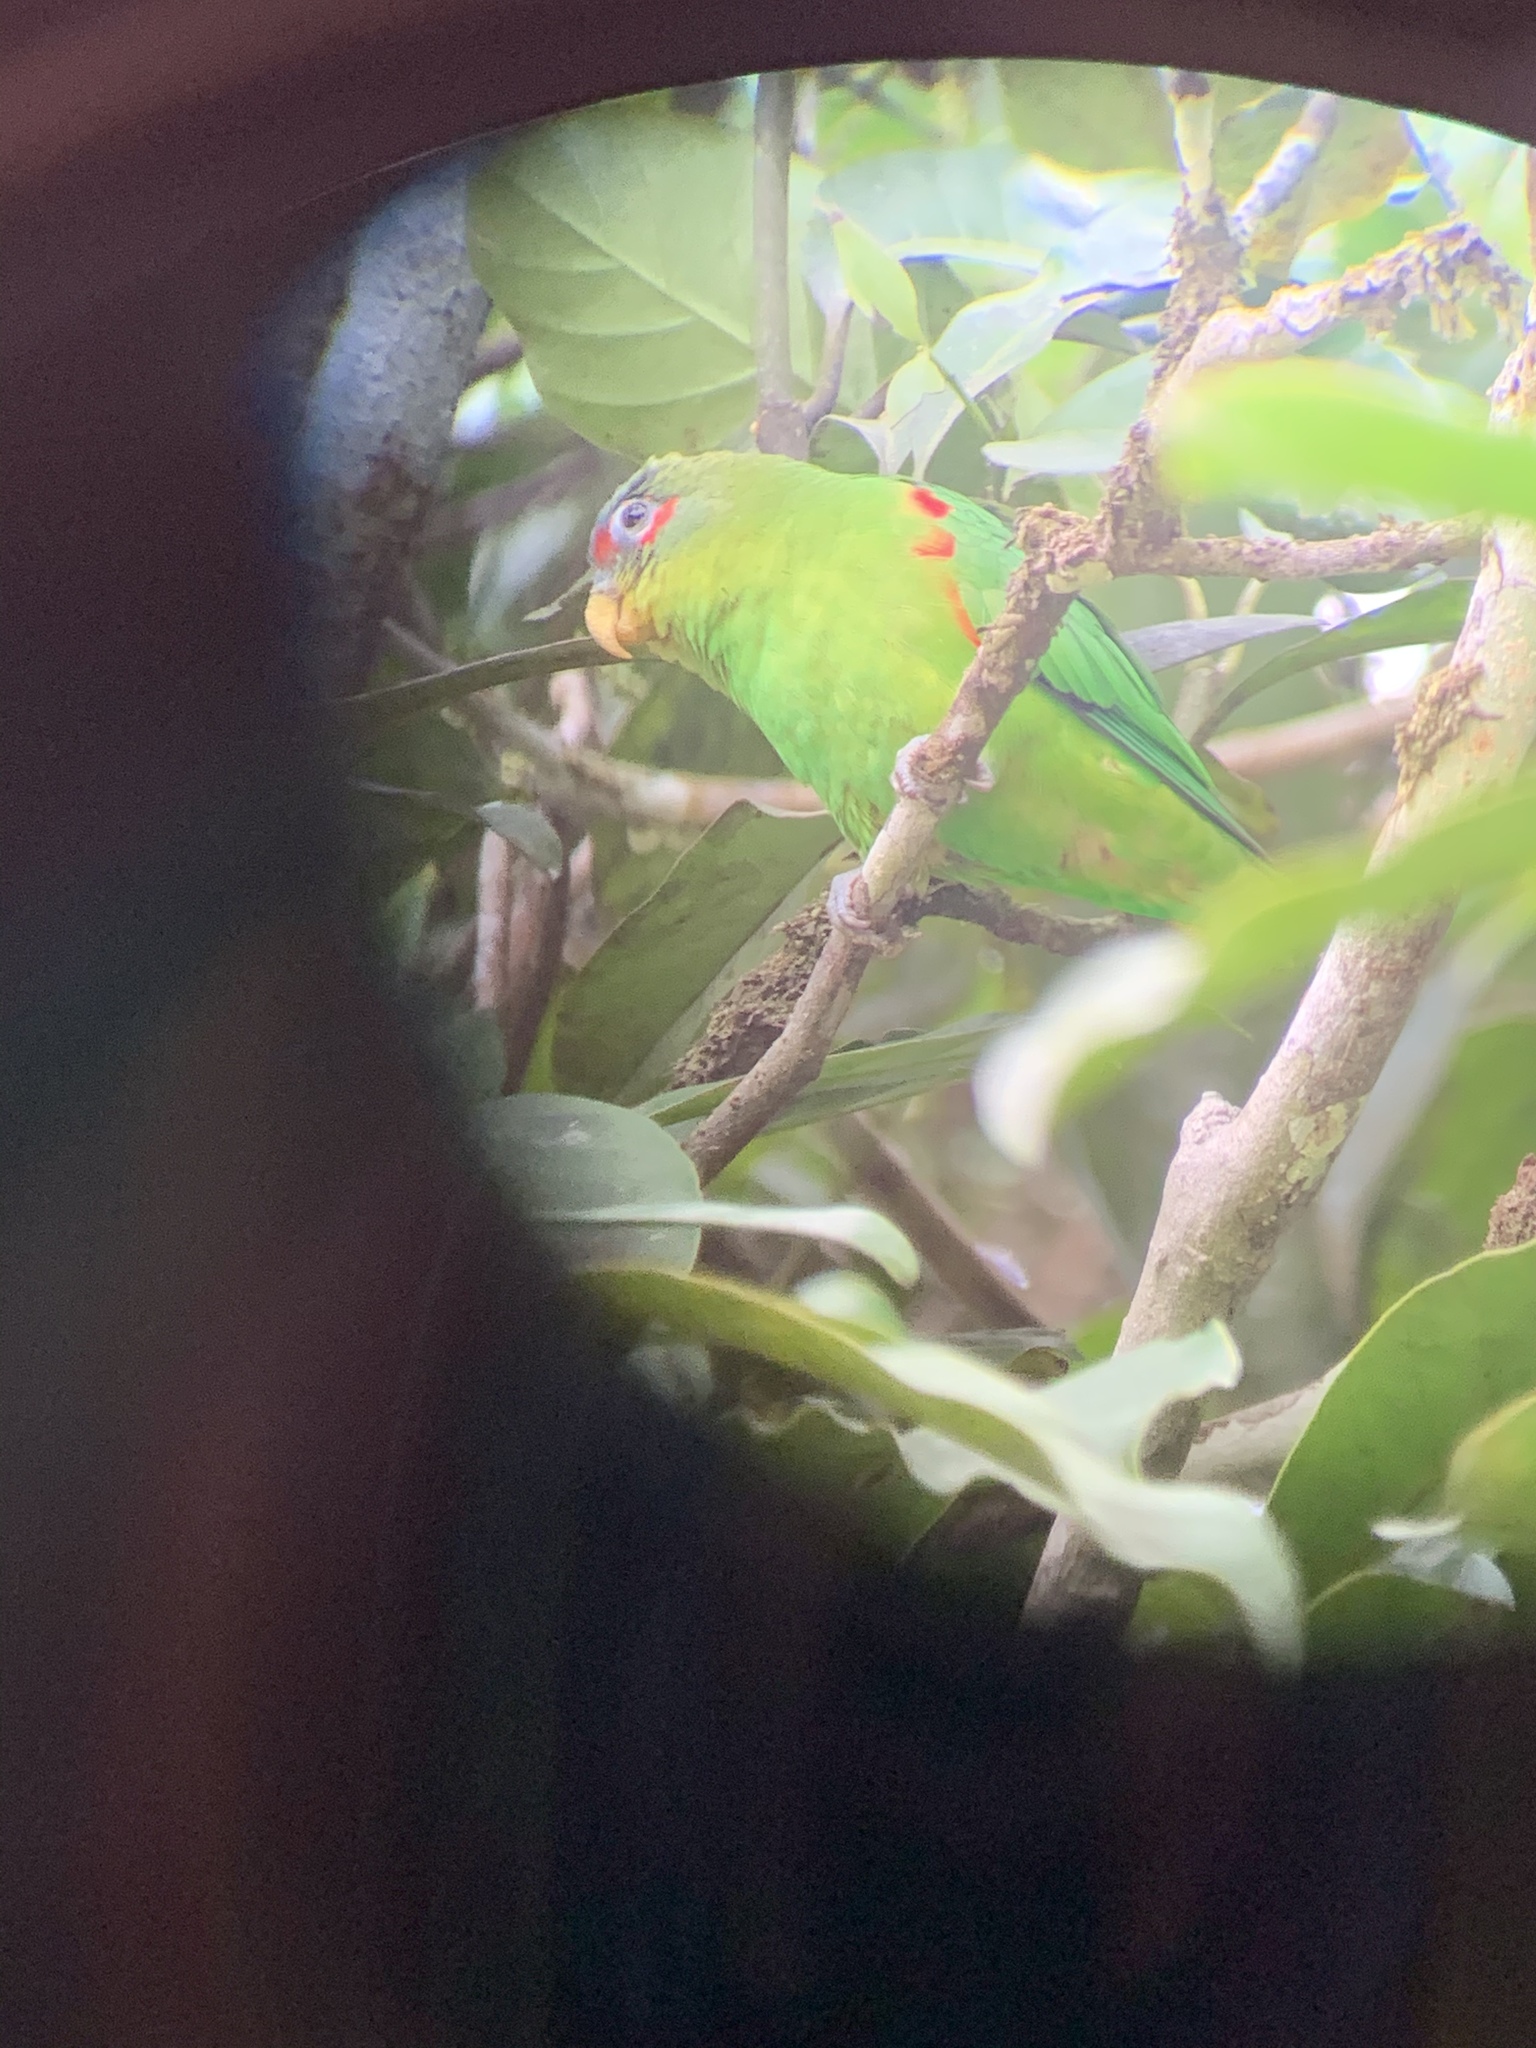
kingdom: Animalia
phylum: Chordata
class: Aves
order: Psittaciformes
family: Psittacidae
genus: Touit
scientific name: Touit dilectissimus
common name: Blue-fronted parrotlet
